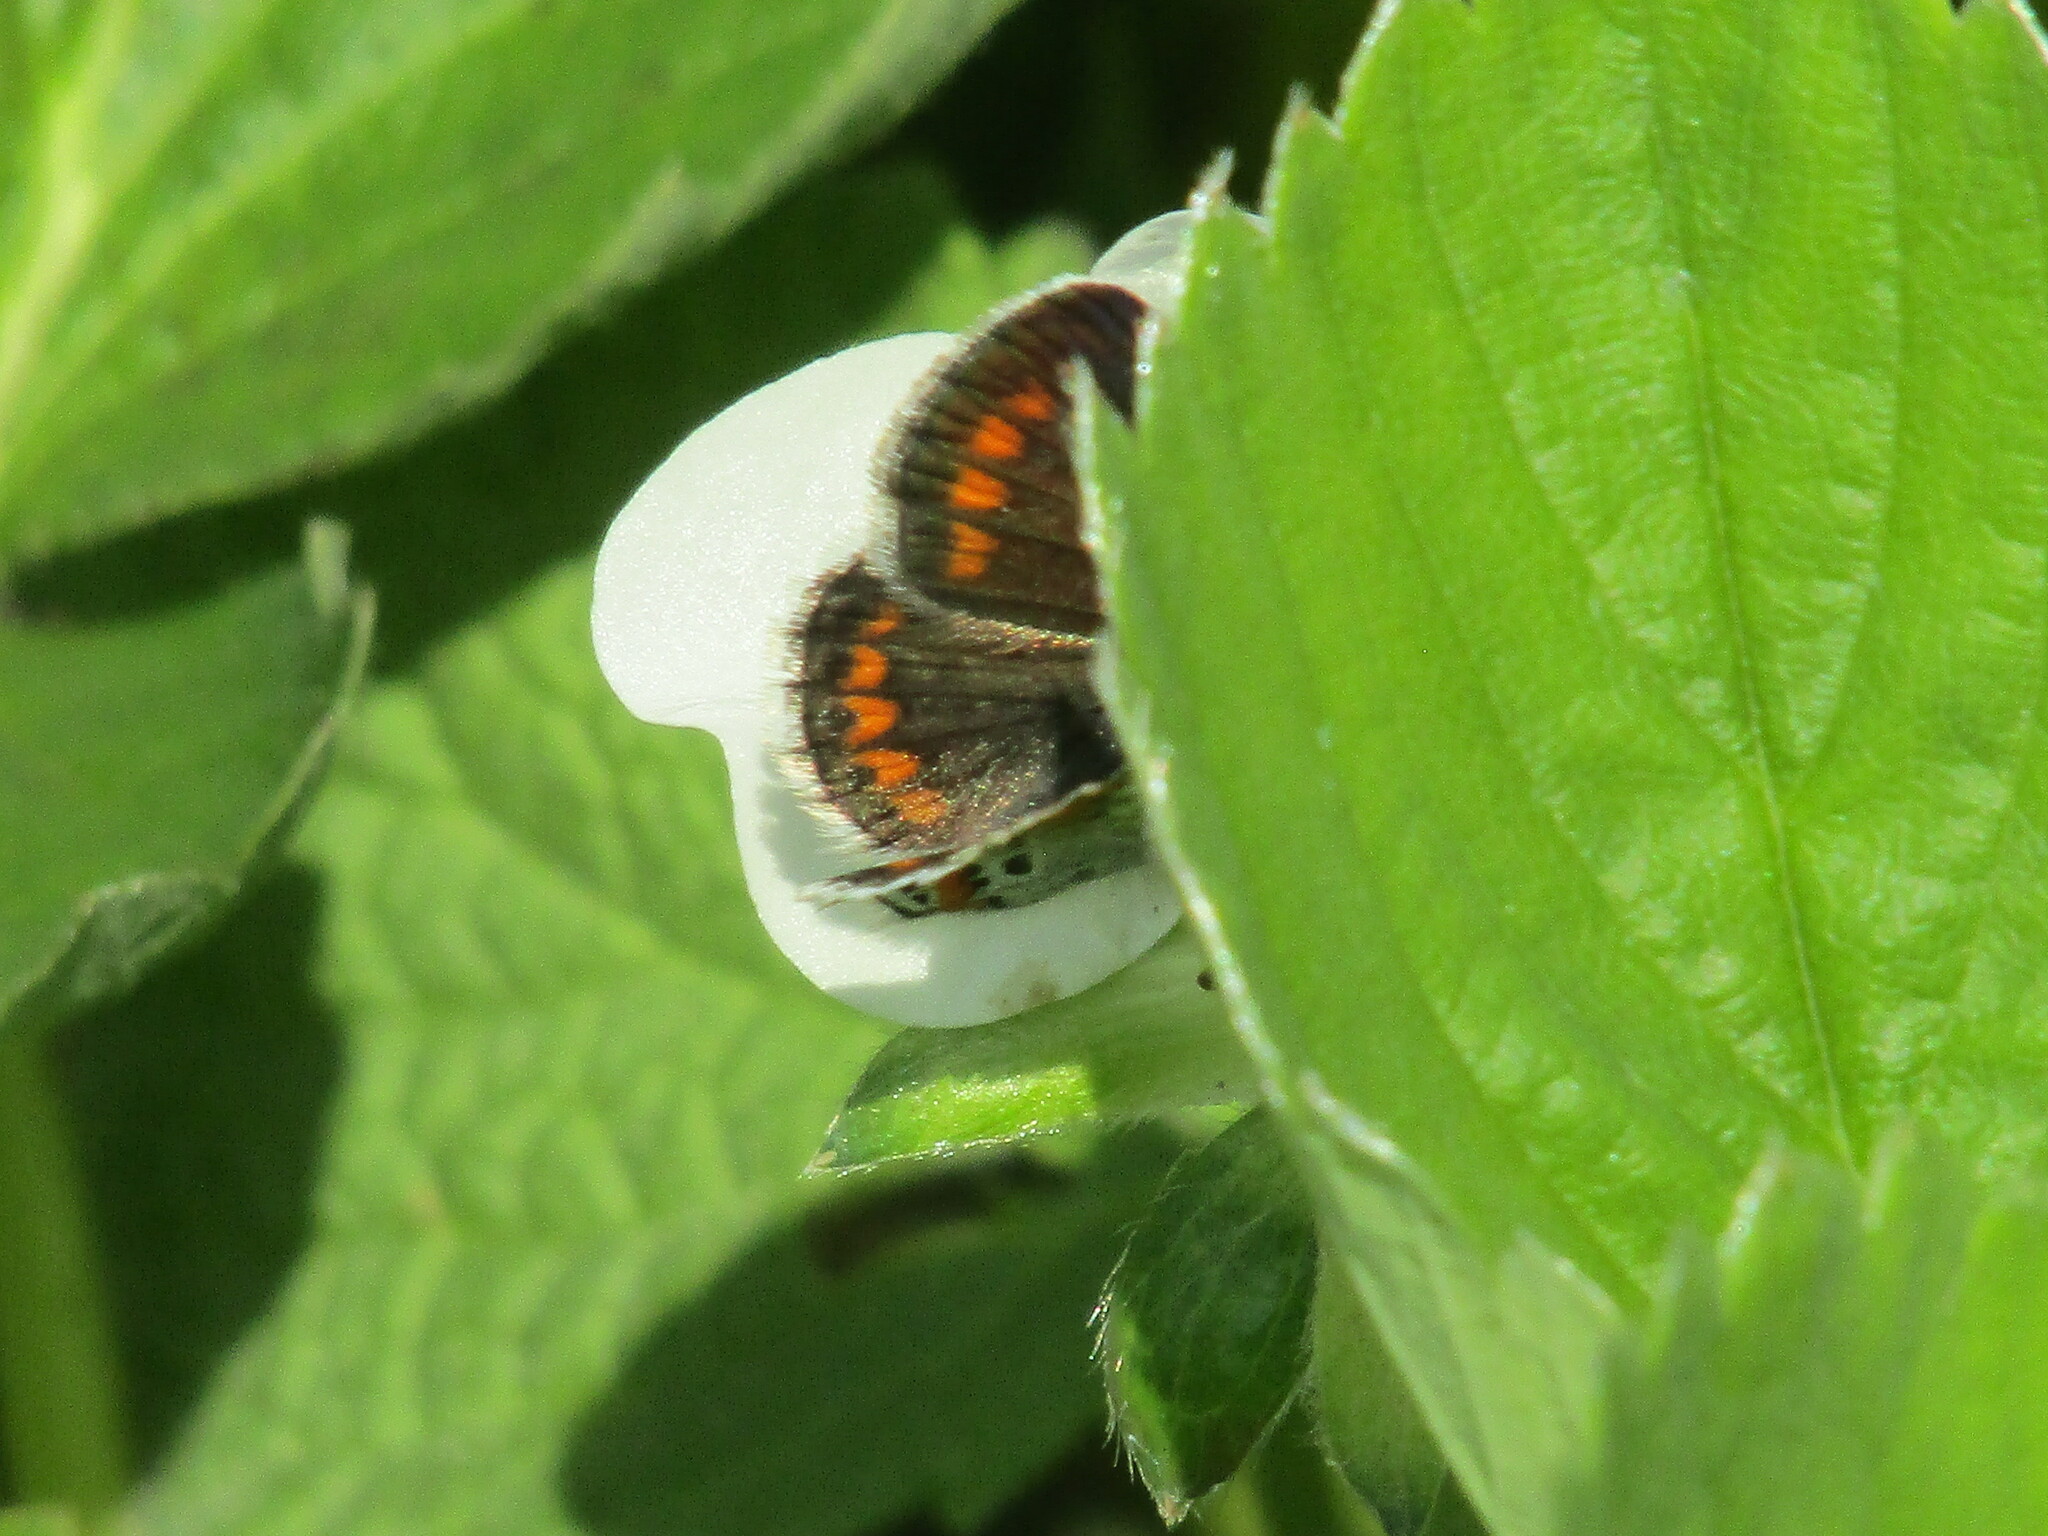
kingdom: Animalia
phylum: Arthropoda
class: Insecta
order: Lepidoptera
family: Lycaenidae
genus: Aricia
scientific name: Aricia agestis
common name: Brown argus
